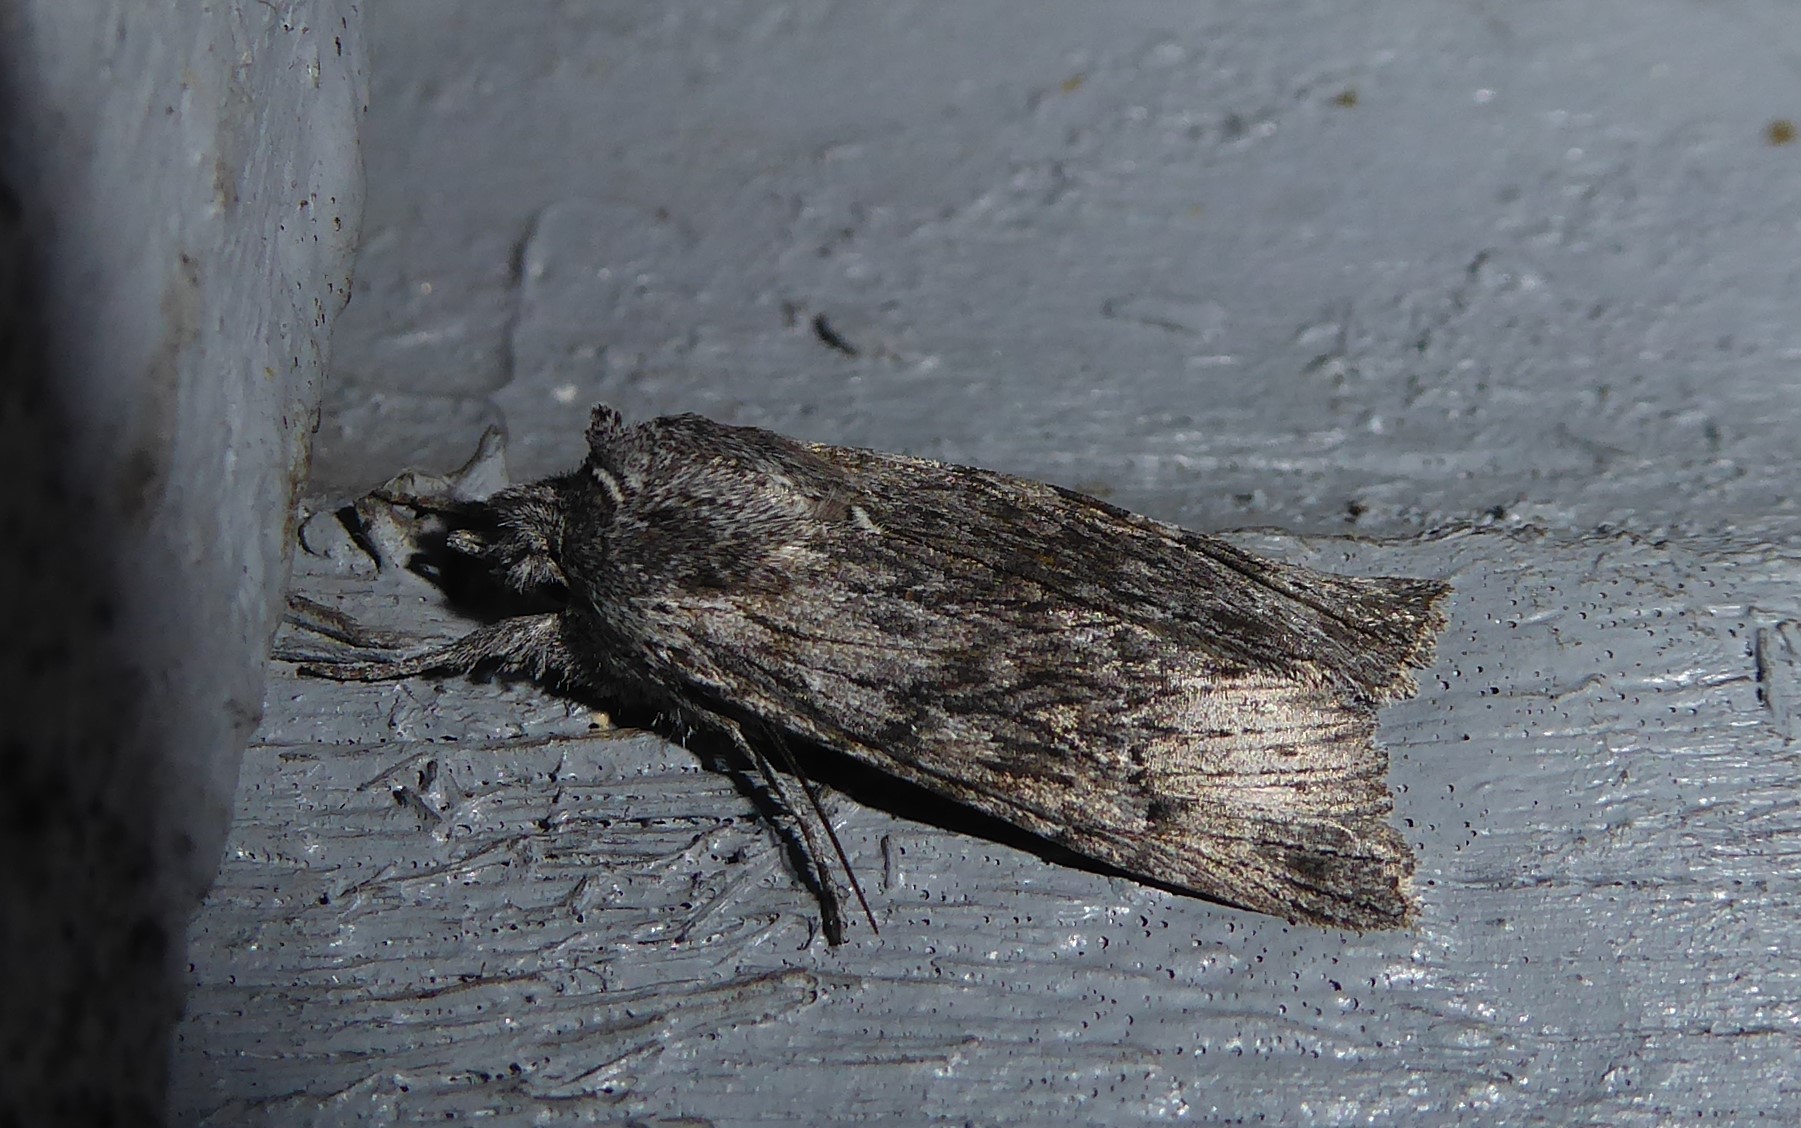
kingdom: Animalia
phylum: Arthropoda
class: Insecta
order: Lepidoptera
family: Noctuidae
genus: Physetica
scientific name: Physetica phricias
